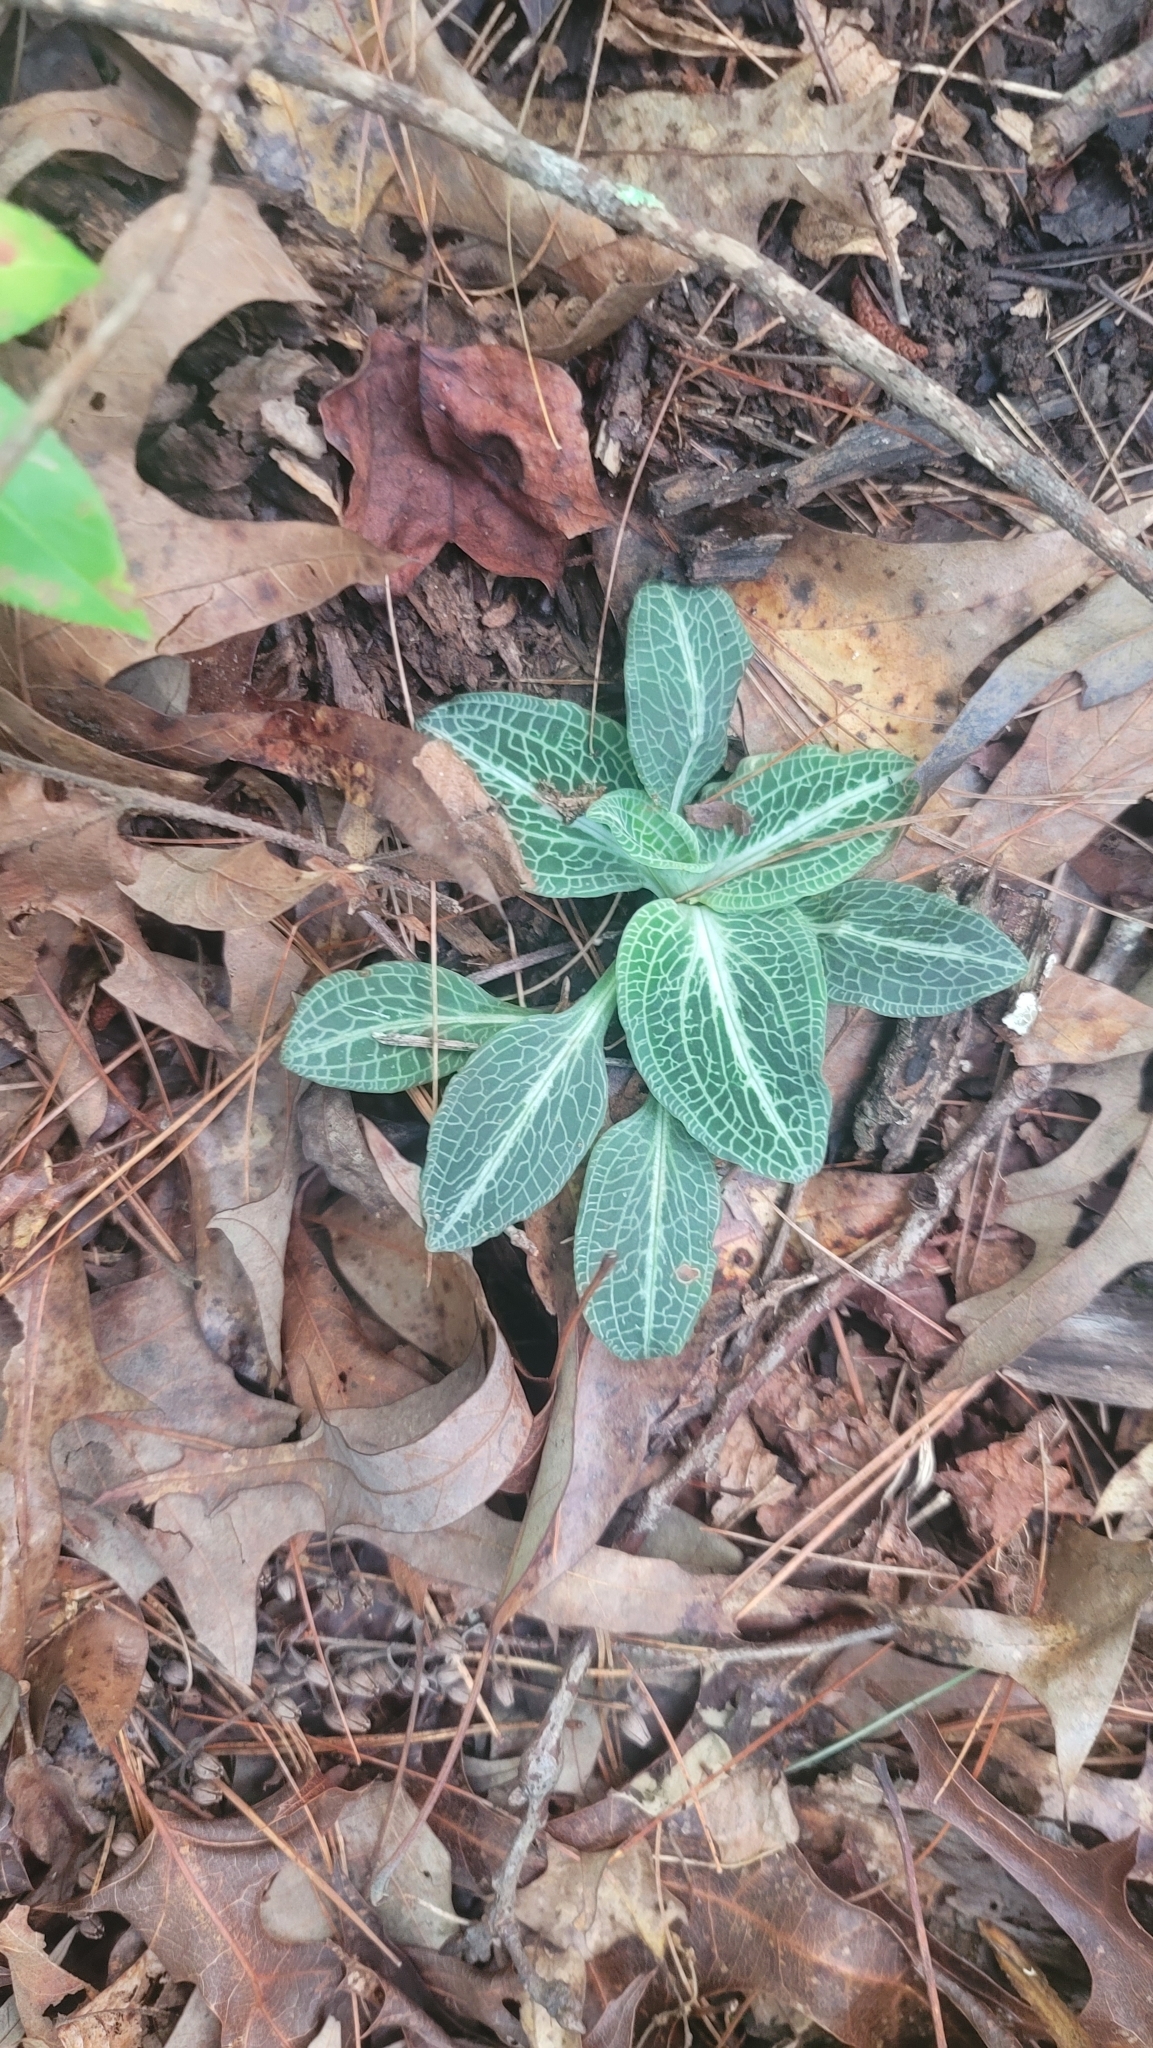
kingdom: Plantae
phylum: Tracheophyta
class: Liliopsida
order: Asparagales
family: Orchidaceae
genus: Goodyera
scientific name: Goodyera pubescens
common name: Downy rattlesnake-plantain
